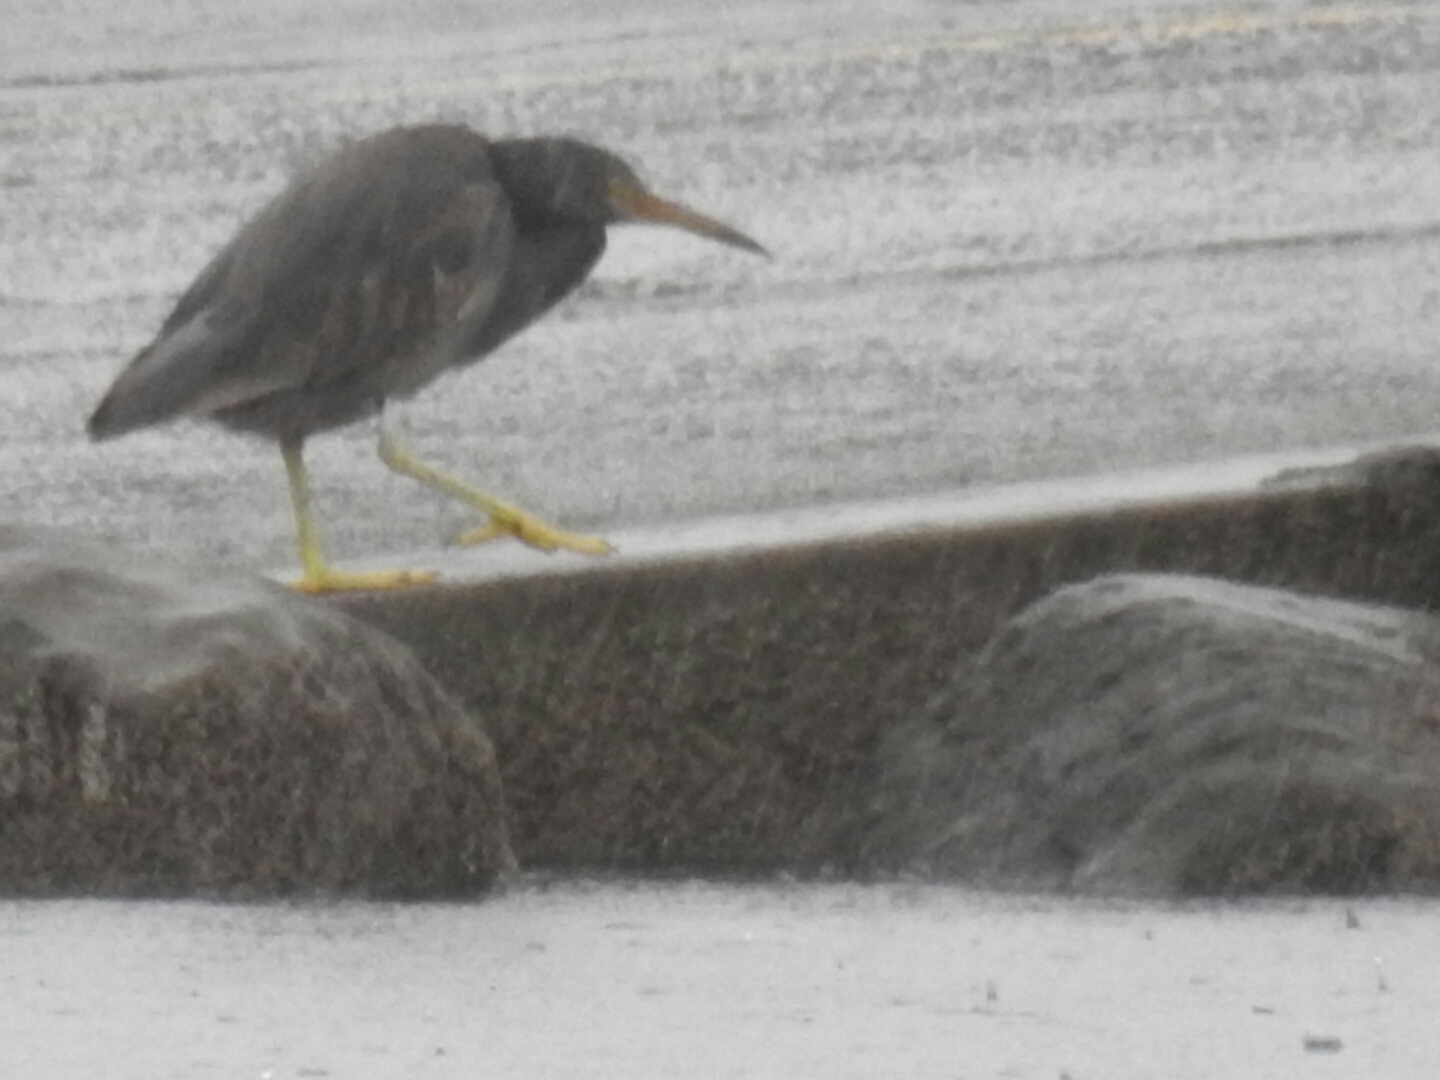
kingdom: Animalia
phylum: Chordata
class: Aves
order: Pelecaniformes
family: Ardeidae
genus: Egretta
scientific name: Egretta sacra
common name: Pacific reef heron
